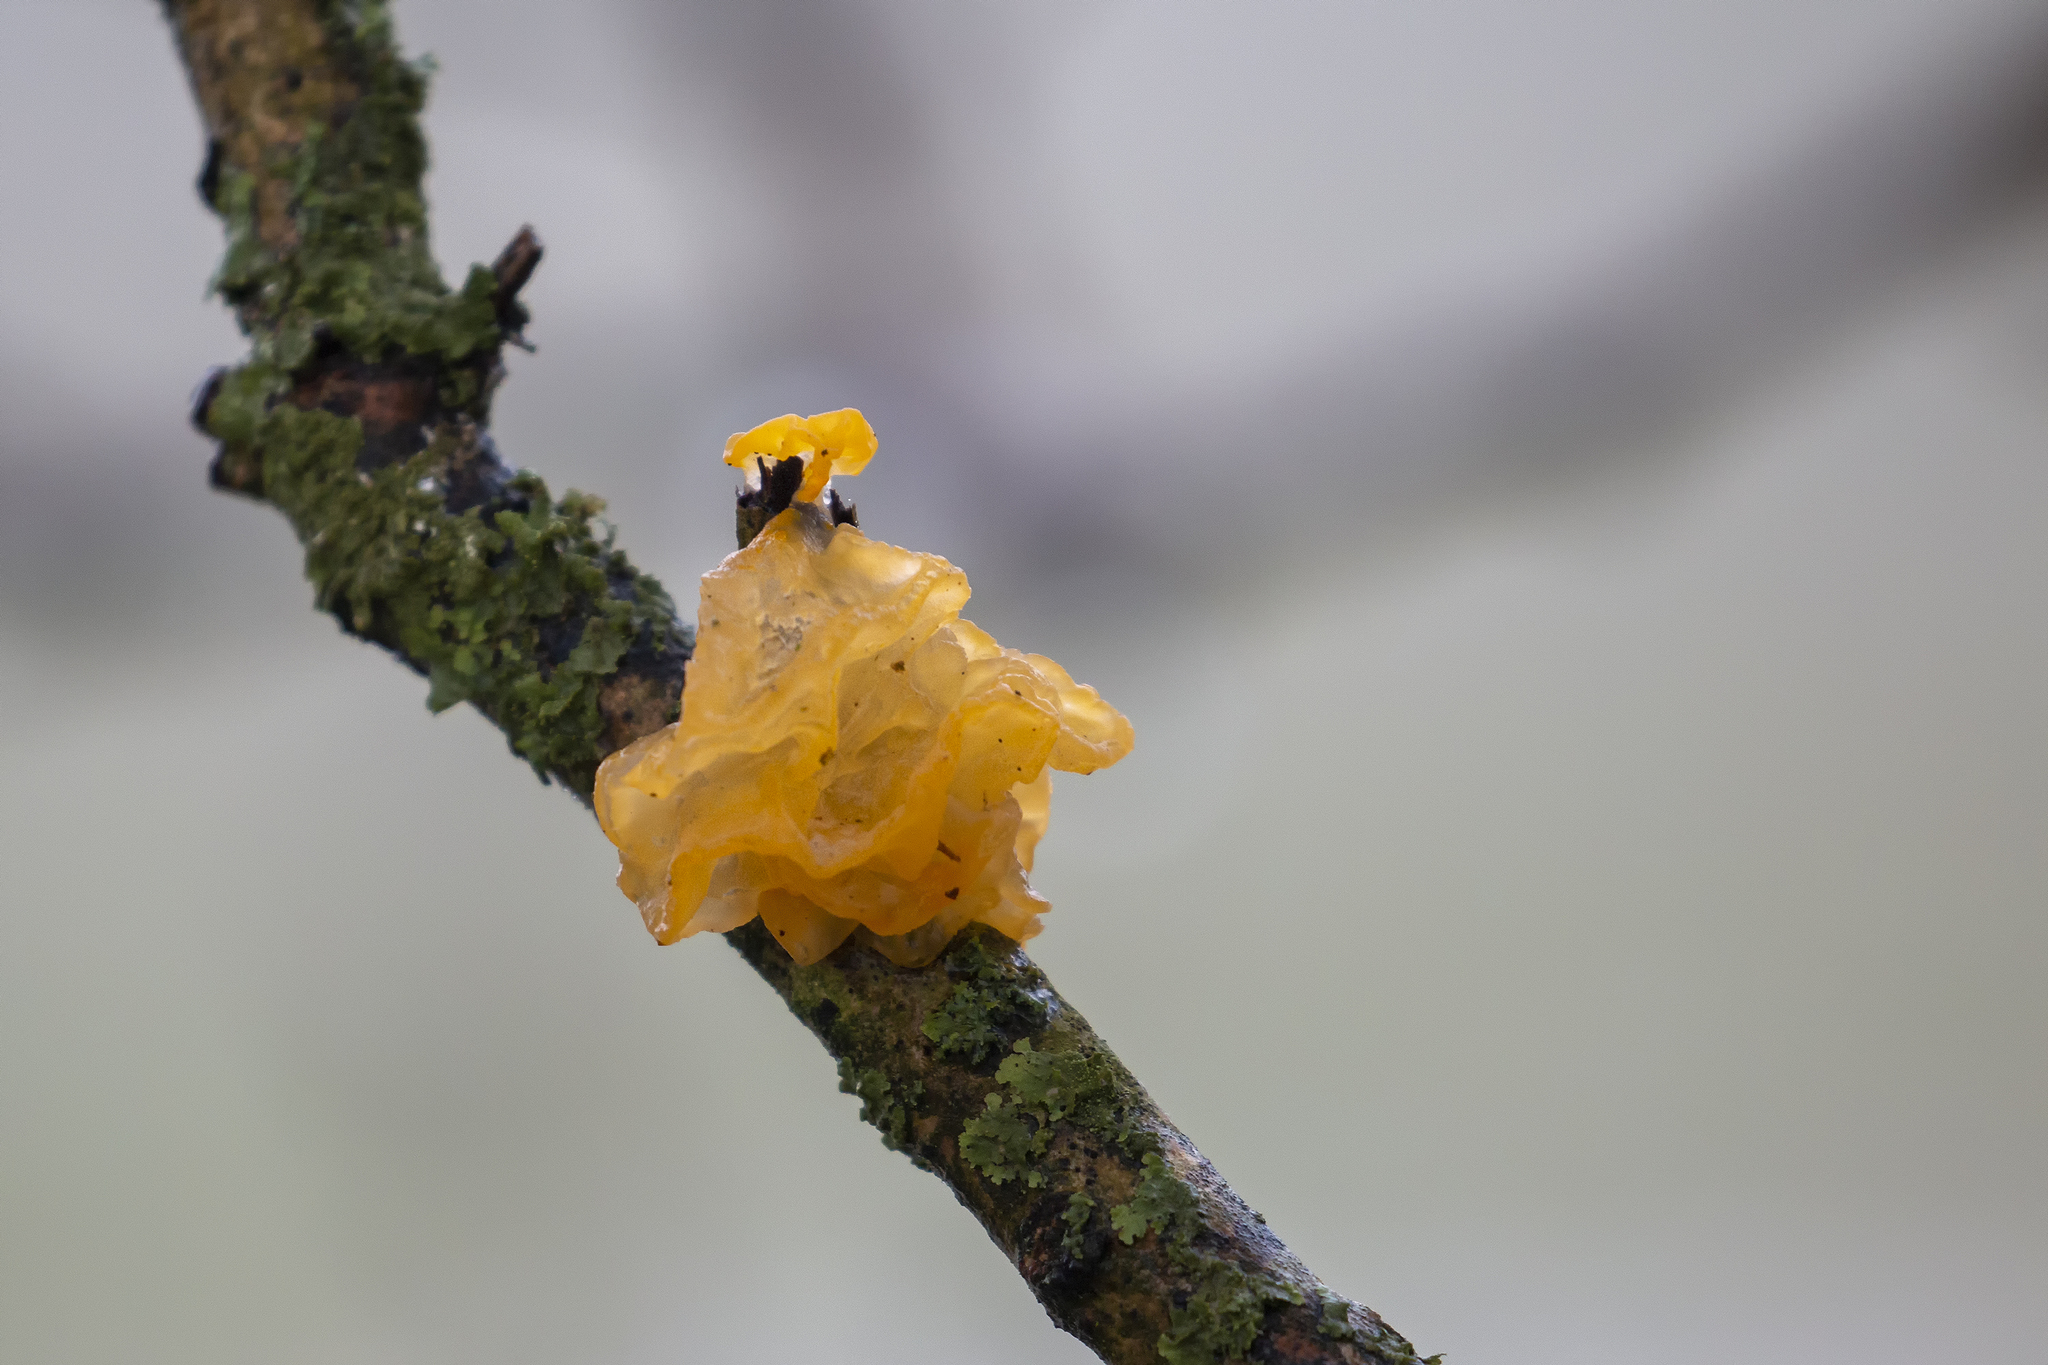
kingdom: Fungi
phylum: Basidiomycota
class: Tremellomycetes
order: Tremellales
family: Tremellaceae
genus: Tremella
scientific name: Tremella mesenterica
